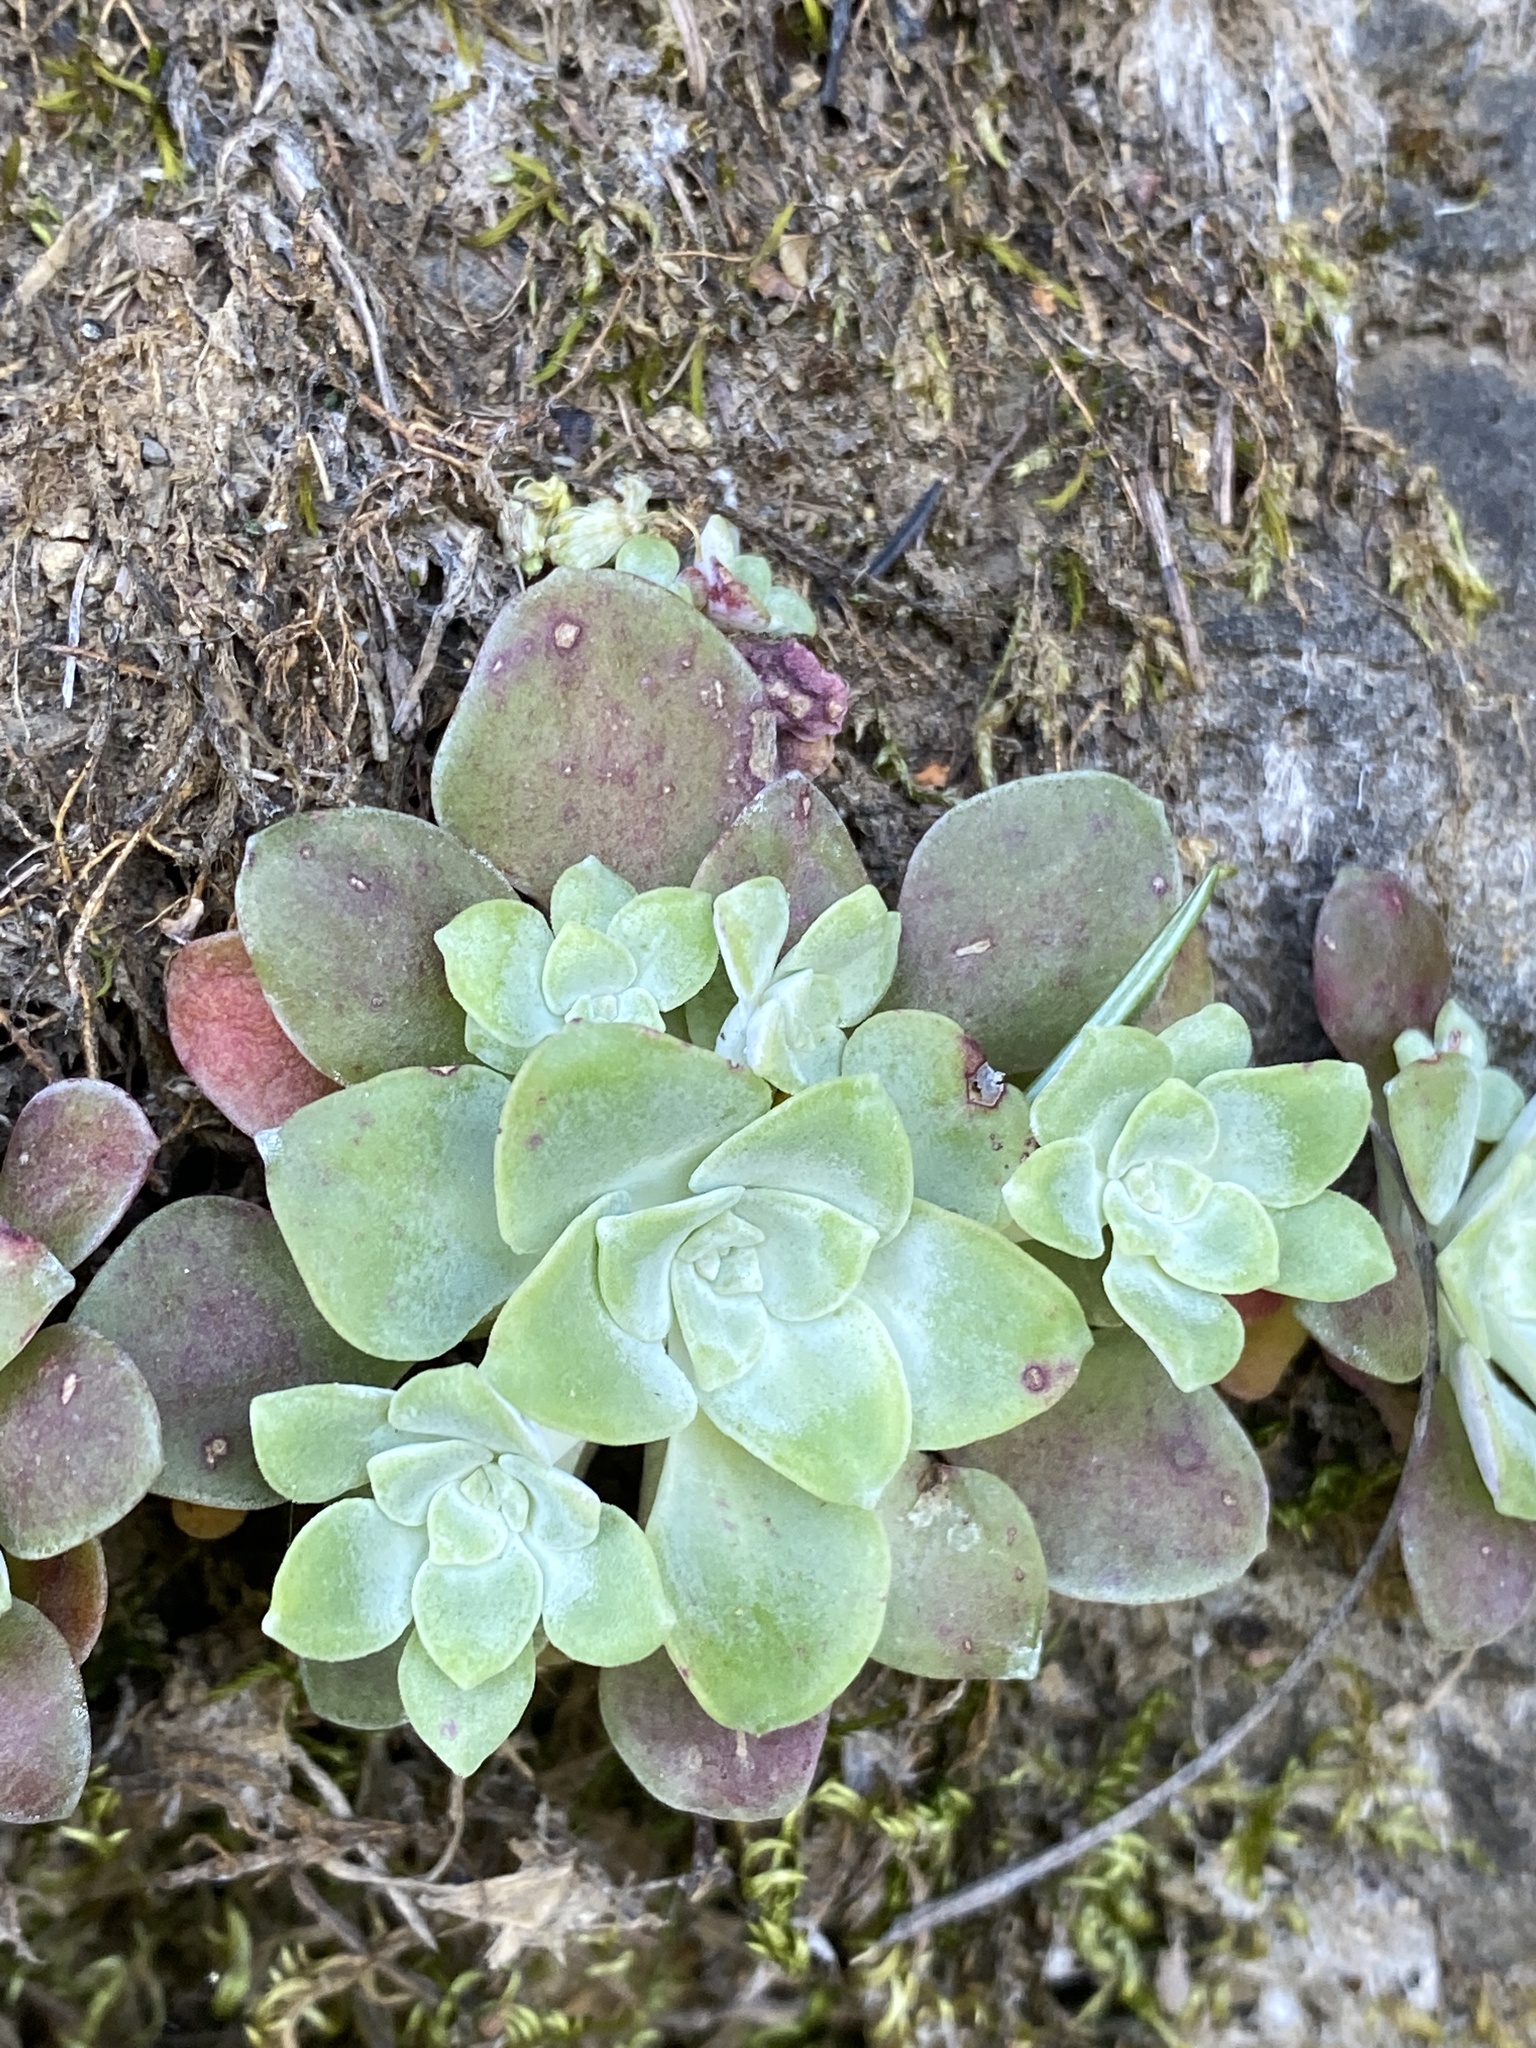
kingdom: Plantae
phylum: Tracheophyta
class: Magnoliopsida
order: Saxifragales
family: Crassulaceae
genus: Sedum
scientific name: Sedum spathulifolium
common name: Colorado stonecrop
